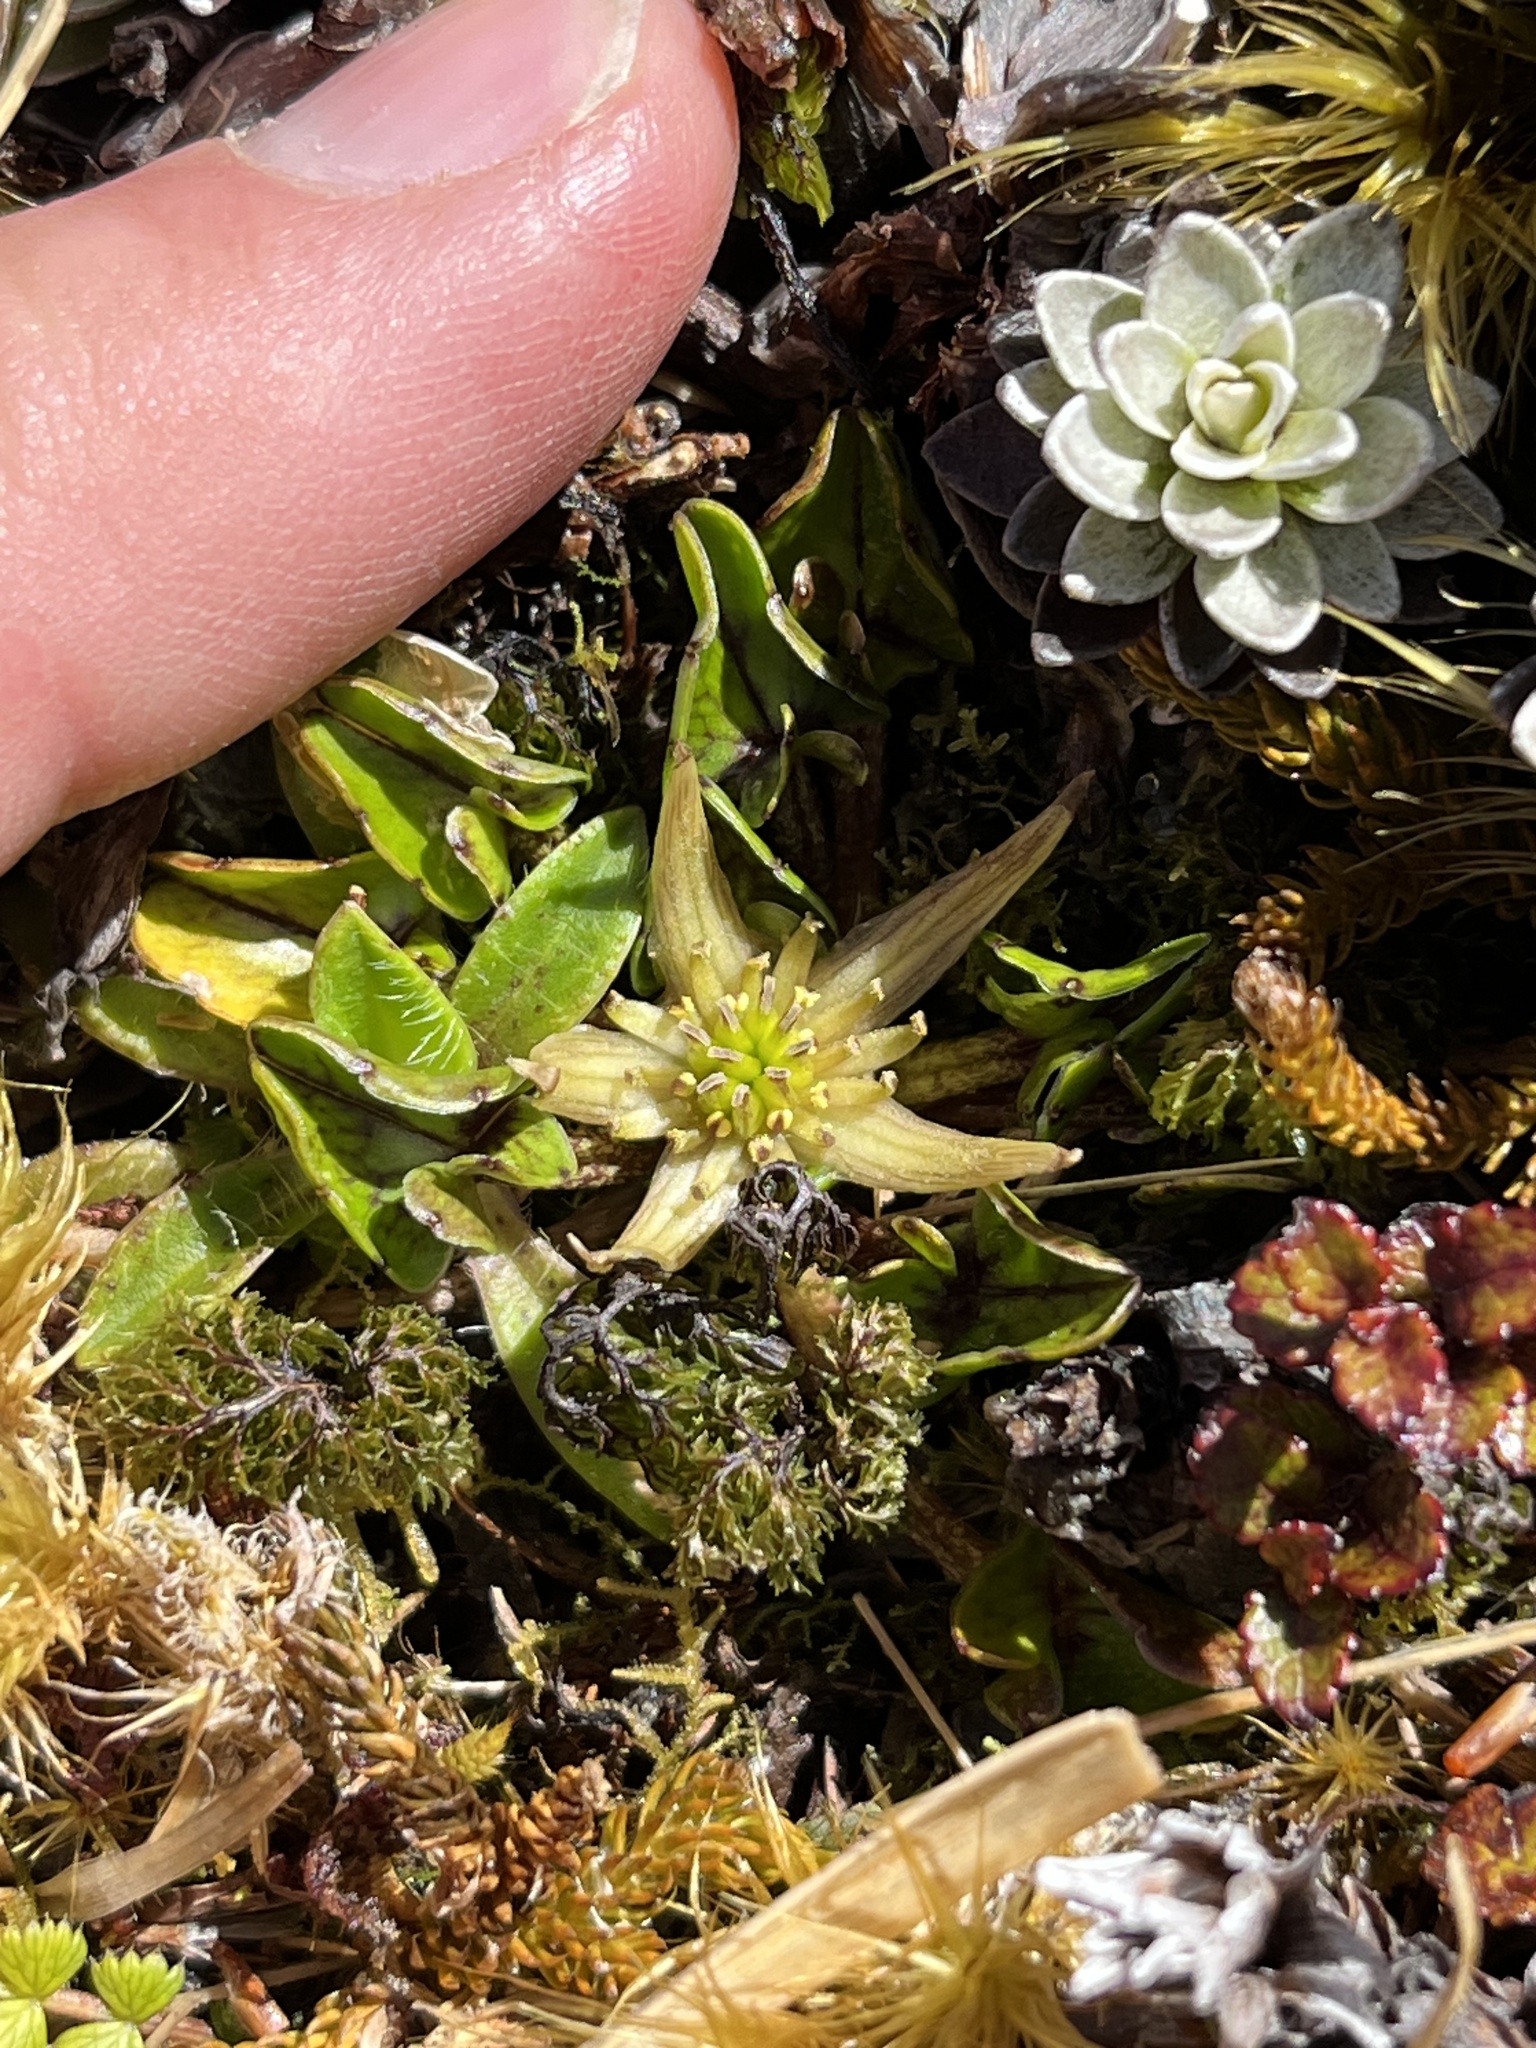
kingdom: Plantae
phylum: Tracheophyta
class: Magnoliopsida
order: Ranunculales
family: Ranunculaceae
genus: Caltha
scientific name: Caltha novae-zelandiae
